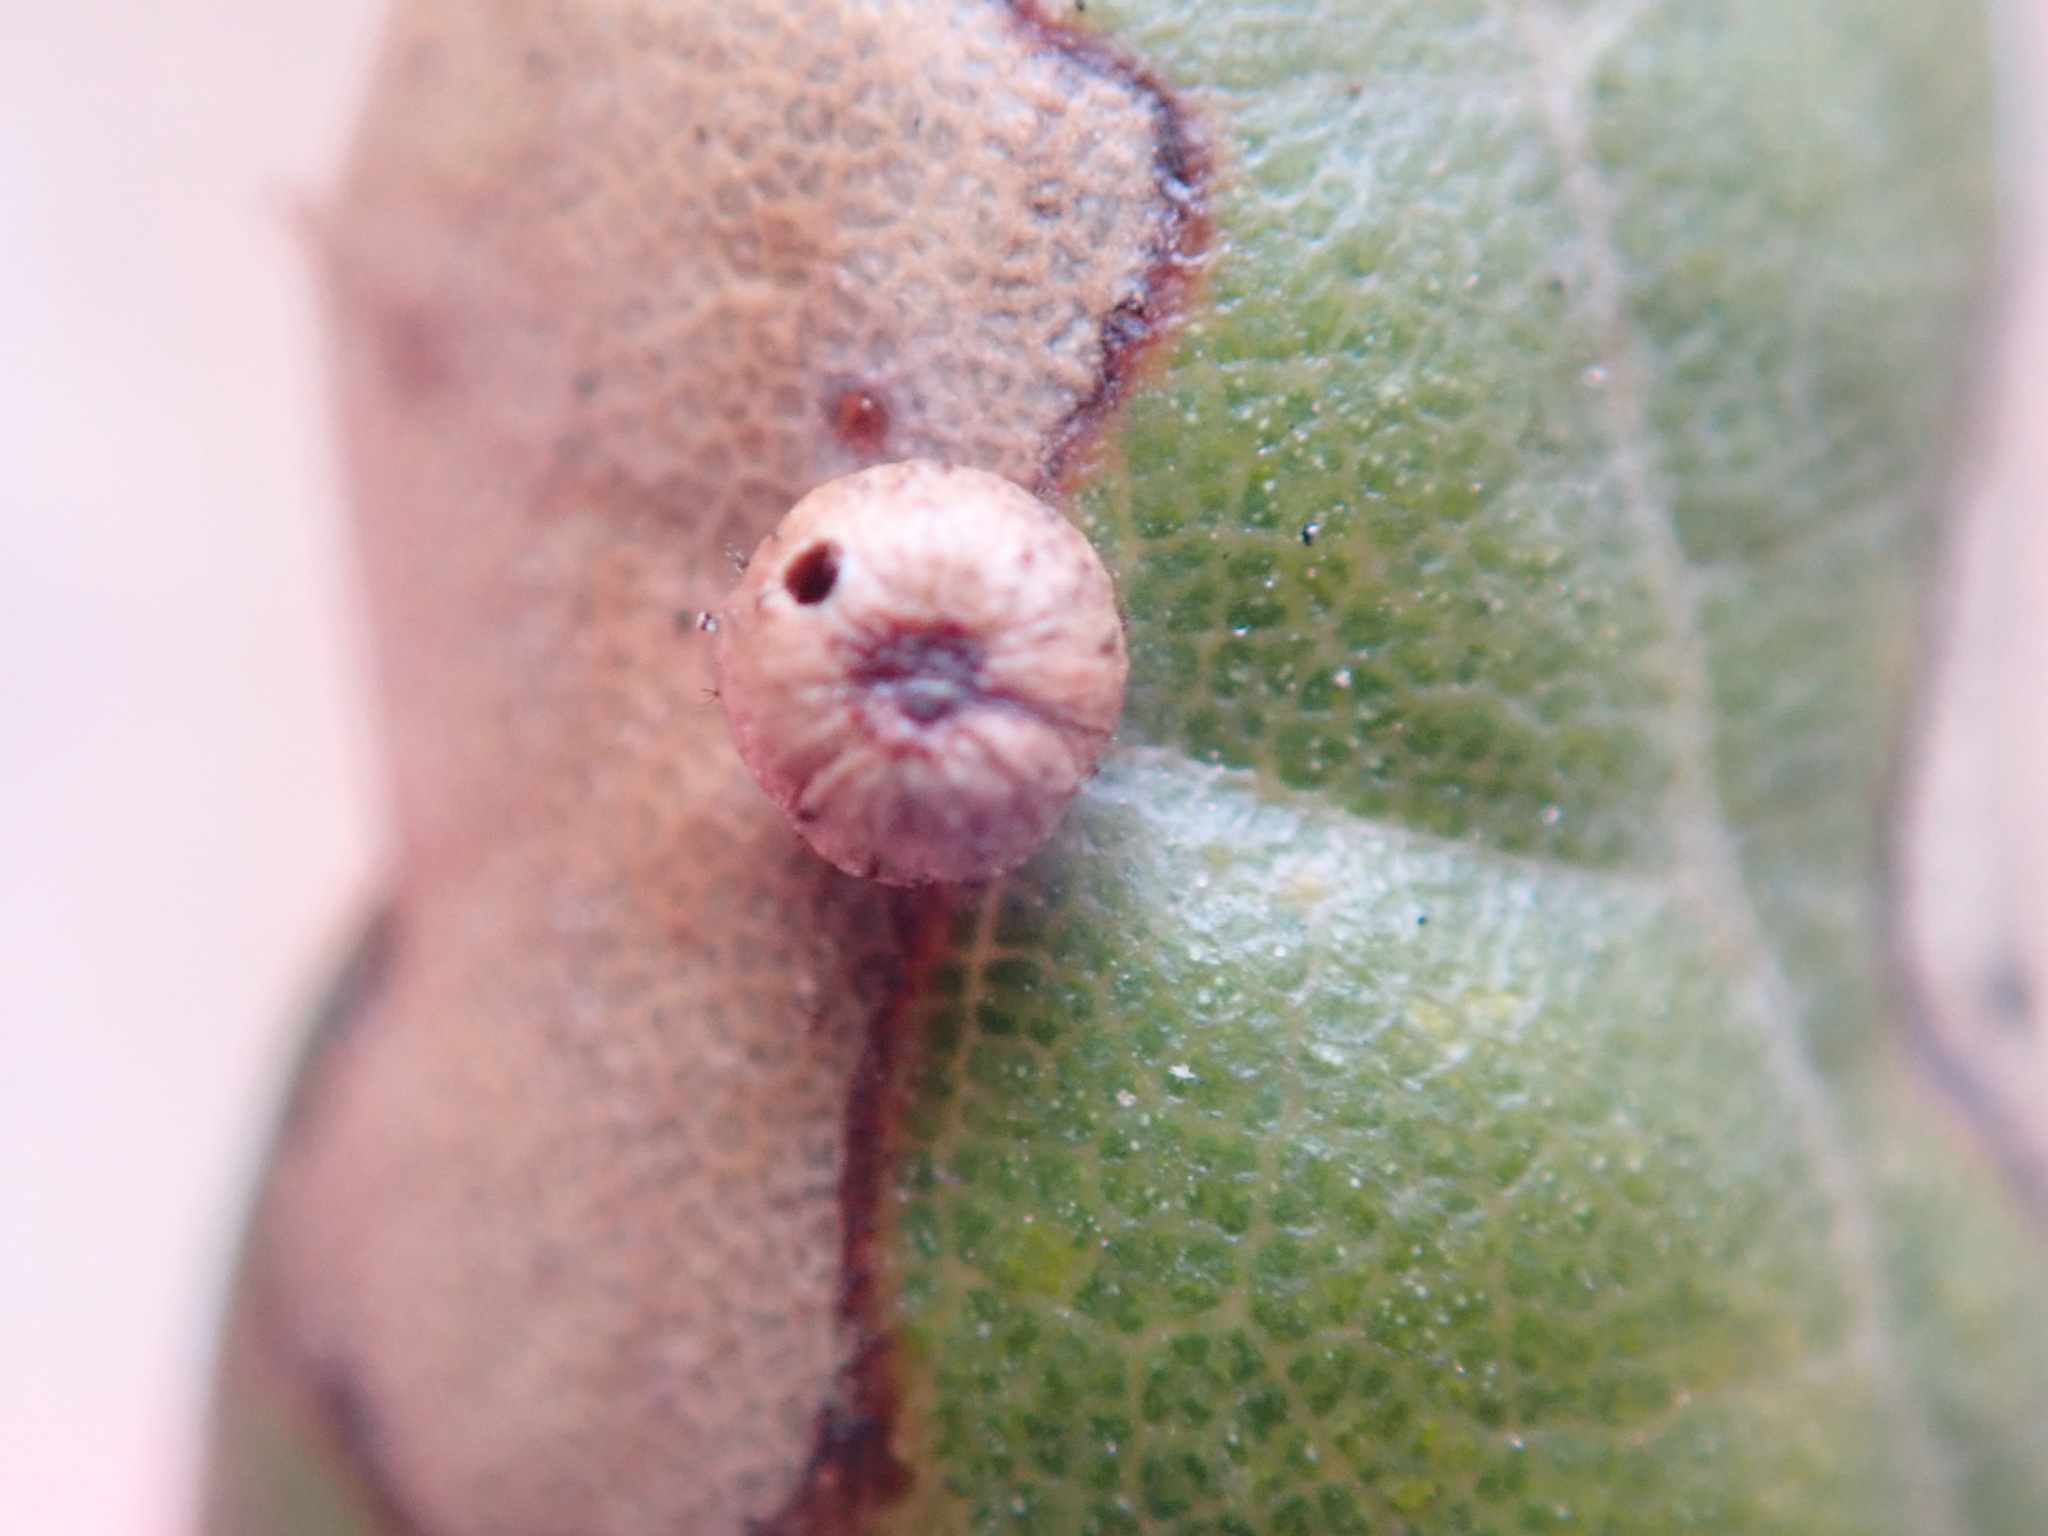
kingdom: Animalia
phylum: Arthropoda
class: Insecta
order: Hymenoptera
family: Cynipidae
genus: Dryocosmus
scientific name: Dryocosmus
